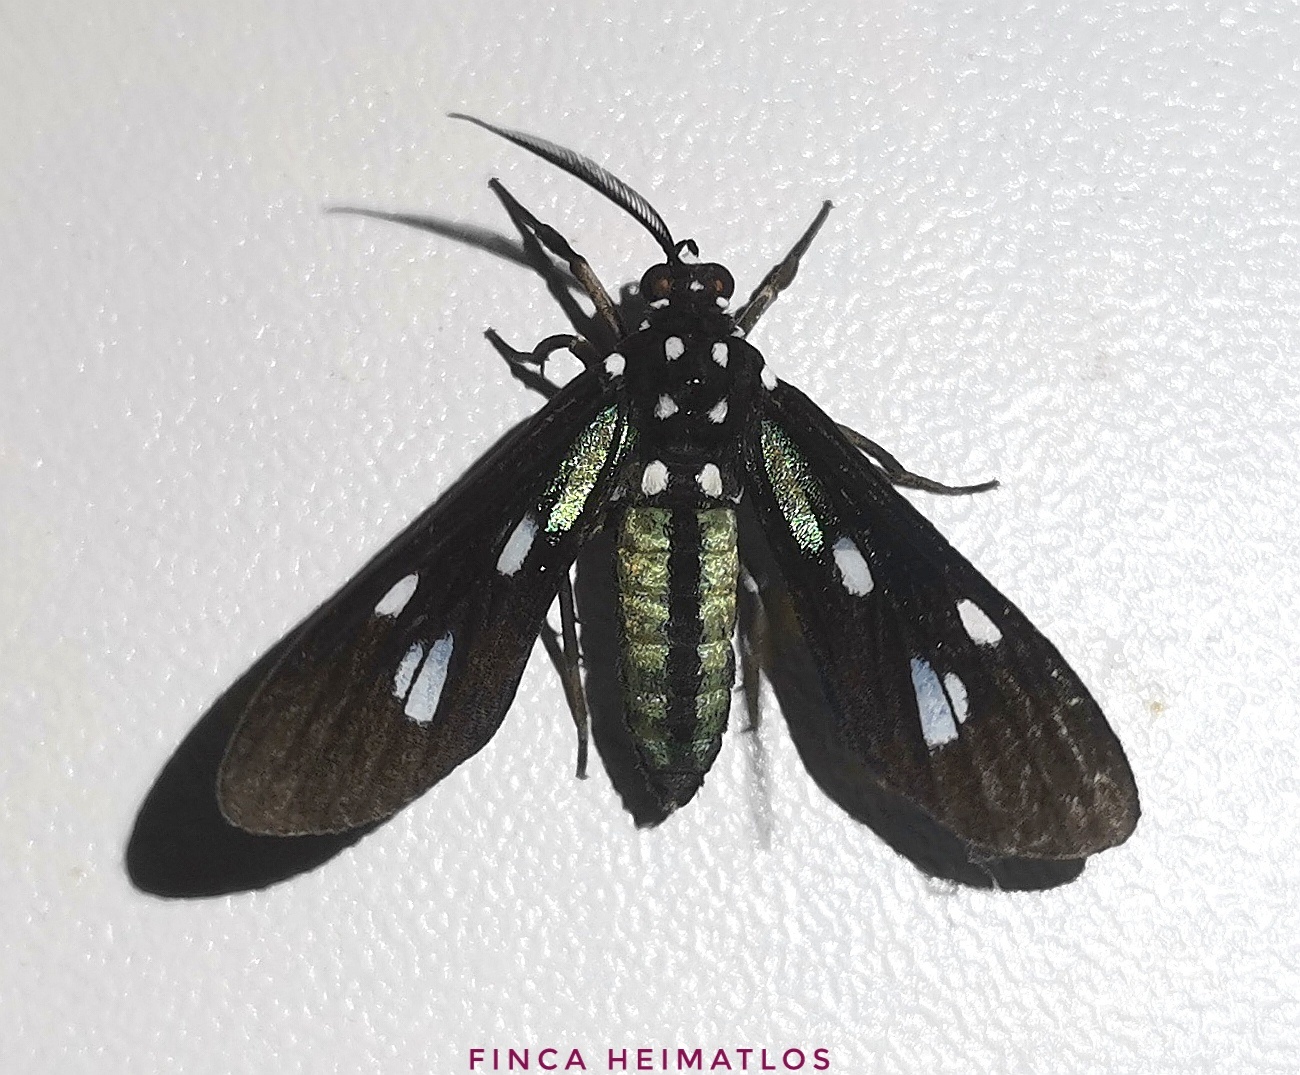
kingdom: Animalia
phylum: Arthropoda
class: Insecta
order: Lepidoptera
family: Erebidae
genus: Leucopleura
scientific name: Leucopleura viridis
